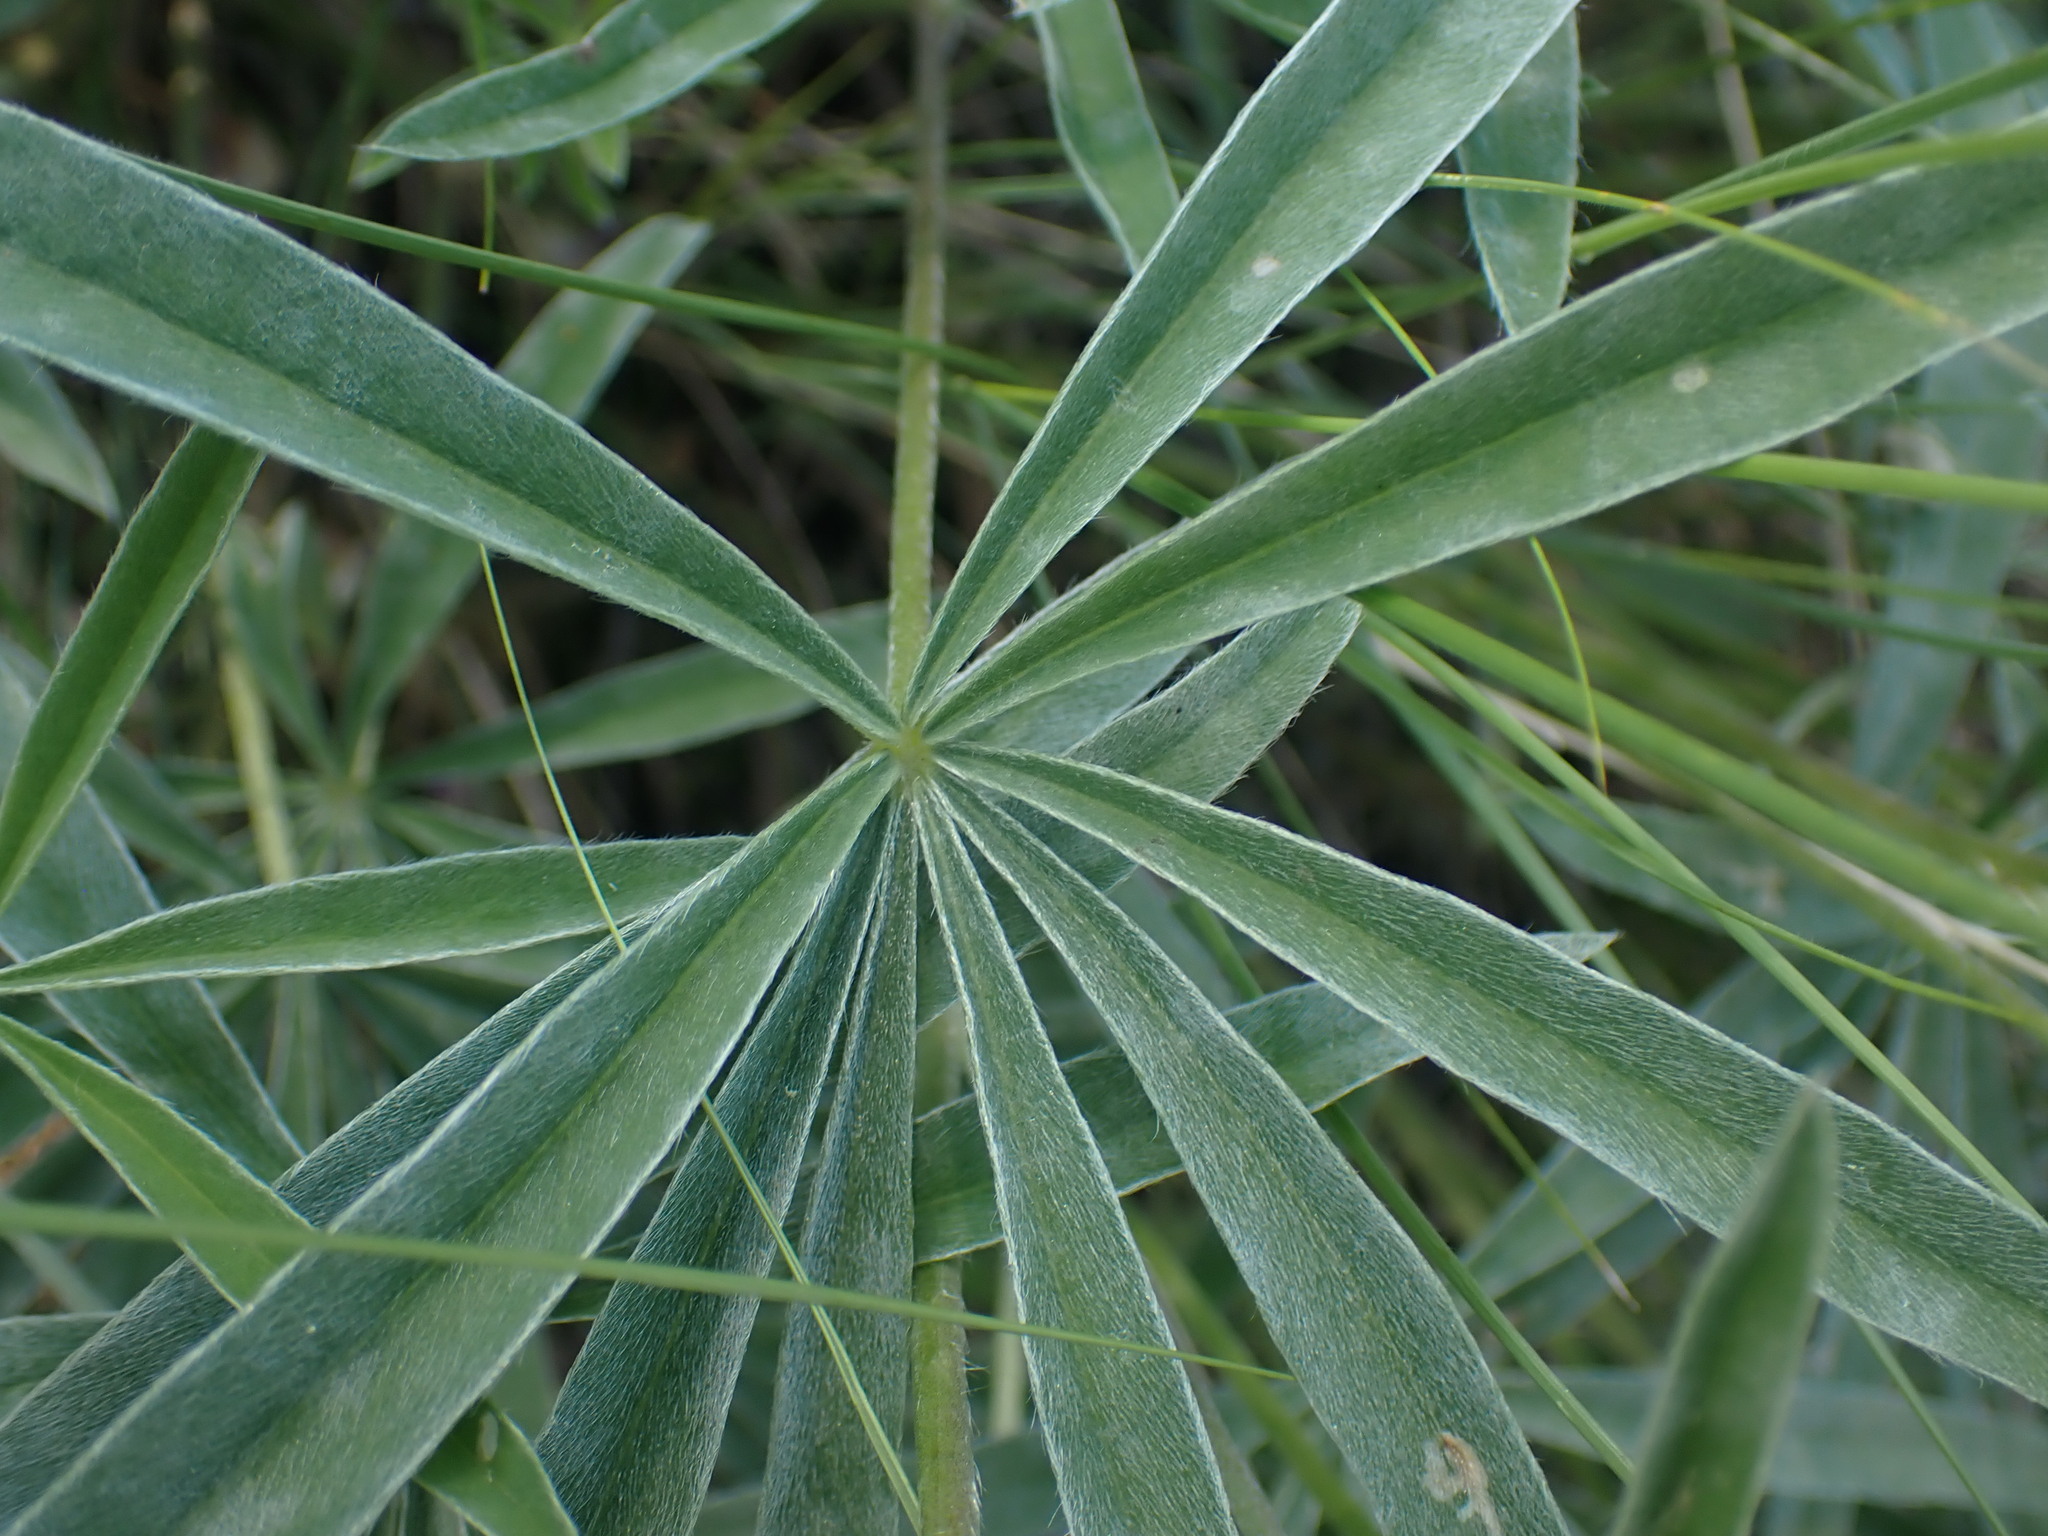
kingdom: Plantae
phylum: Tracheophyta
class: Magnoliopsida
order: Fabales
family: Fabaceae
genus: Lupinus
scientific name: Lupinus sericeus
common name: Silky lupine
